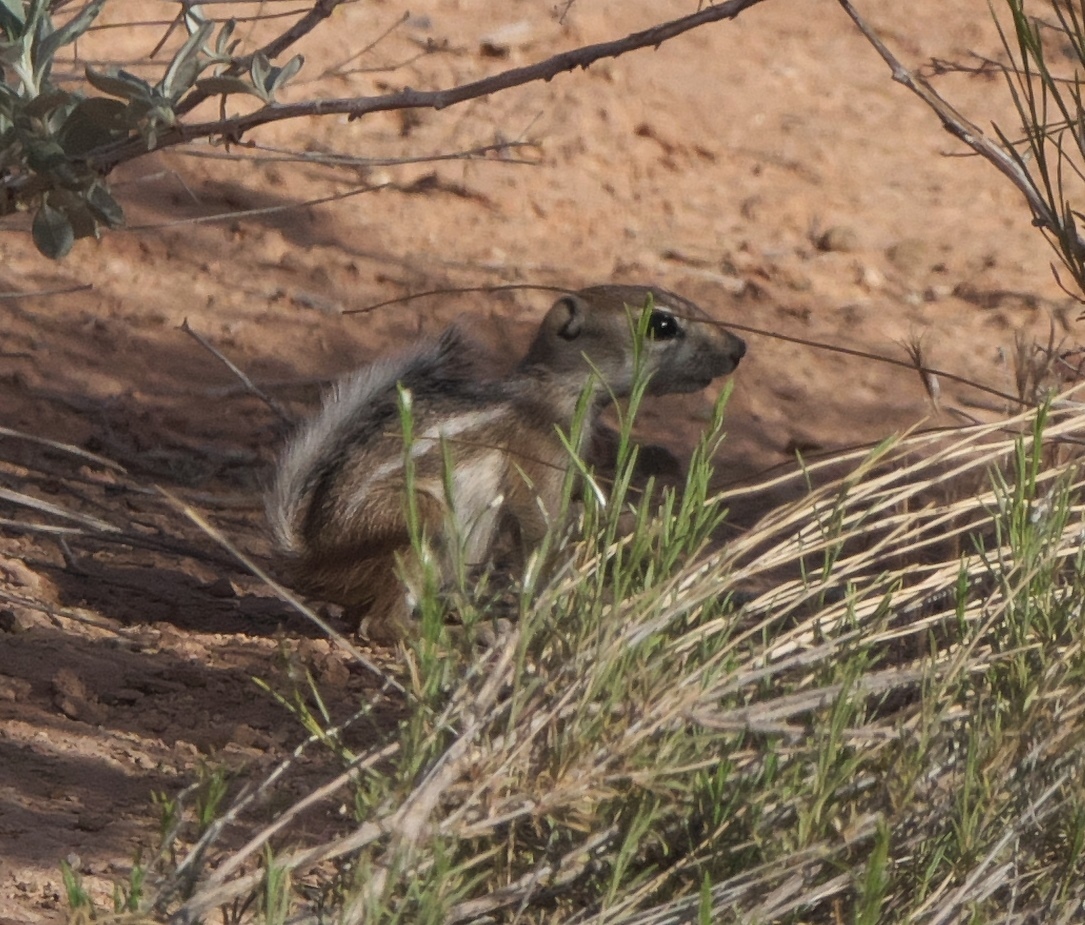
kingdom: Animalia
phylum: Chordata
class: Mammalia
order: Rodentia
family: Sciuridae
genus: Ammospermophilus
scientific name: Ammospermophilus leucurus
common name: White-tailed antelope squirrel
